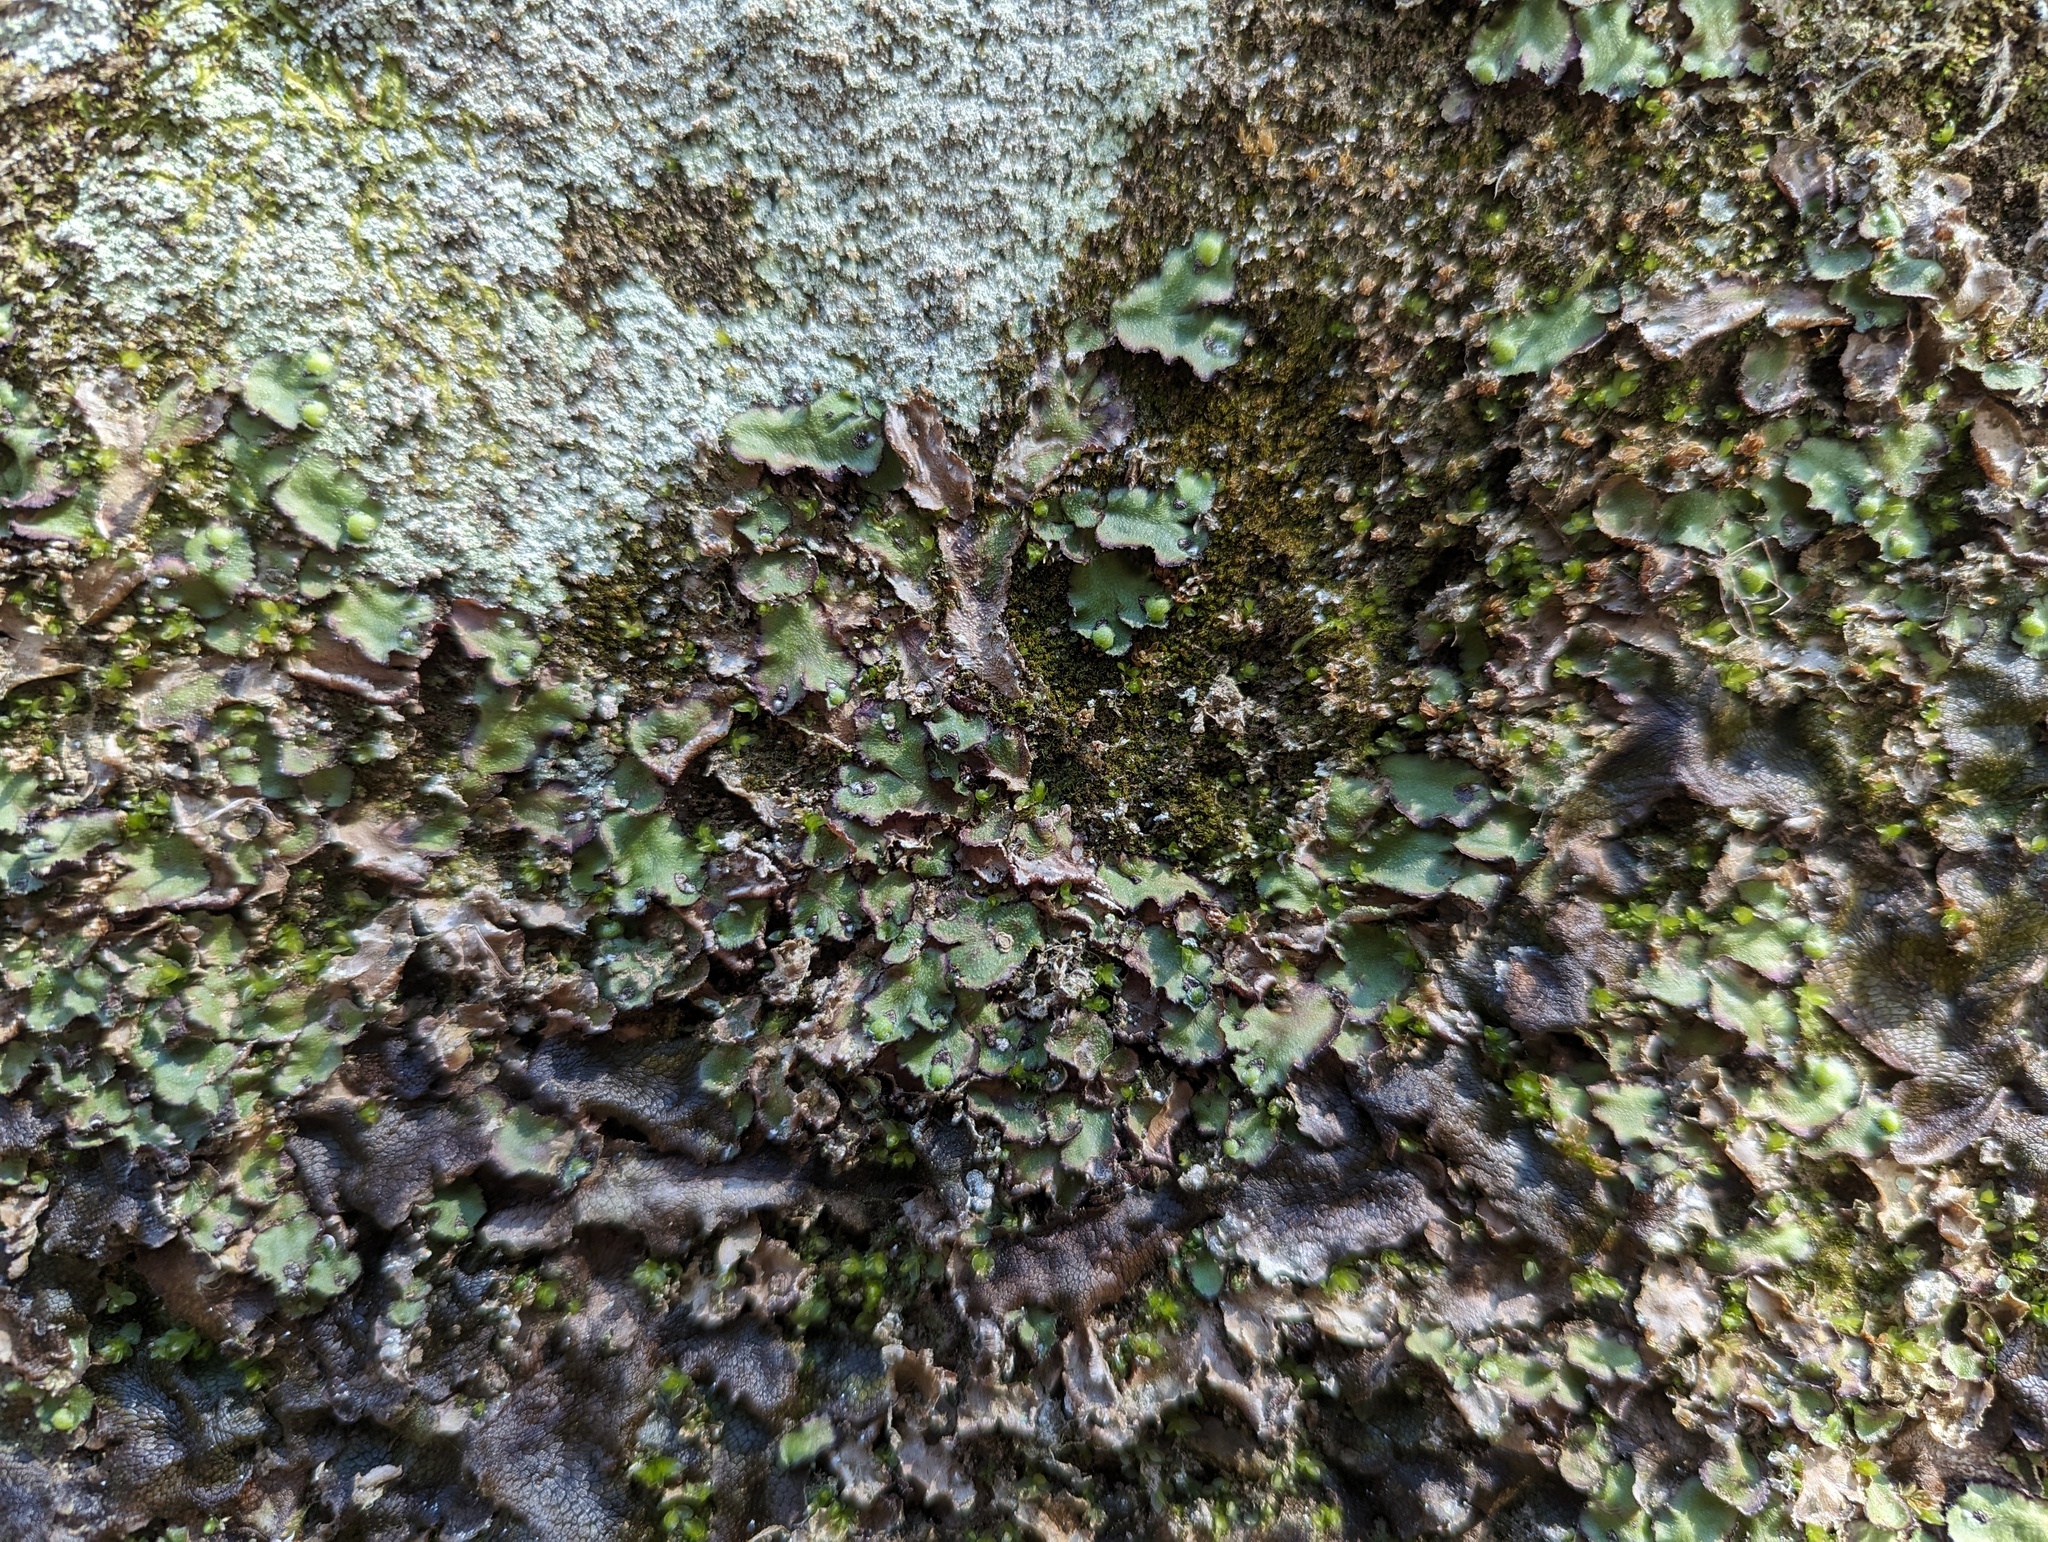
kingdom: Plantae
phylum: Marchantiophyta
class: Marchantiopsida
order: Marchantiales
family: Aytoniaceae
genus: Reboulia
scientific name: Reboulia hemisphaerica
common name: Purple-margined liverwort
